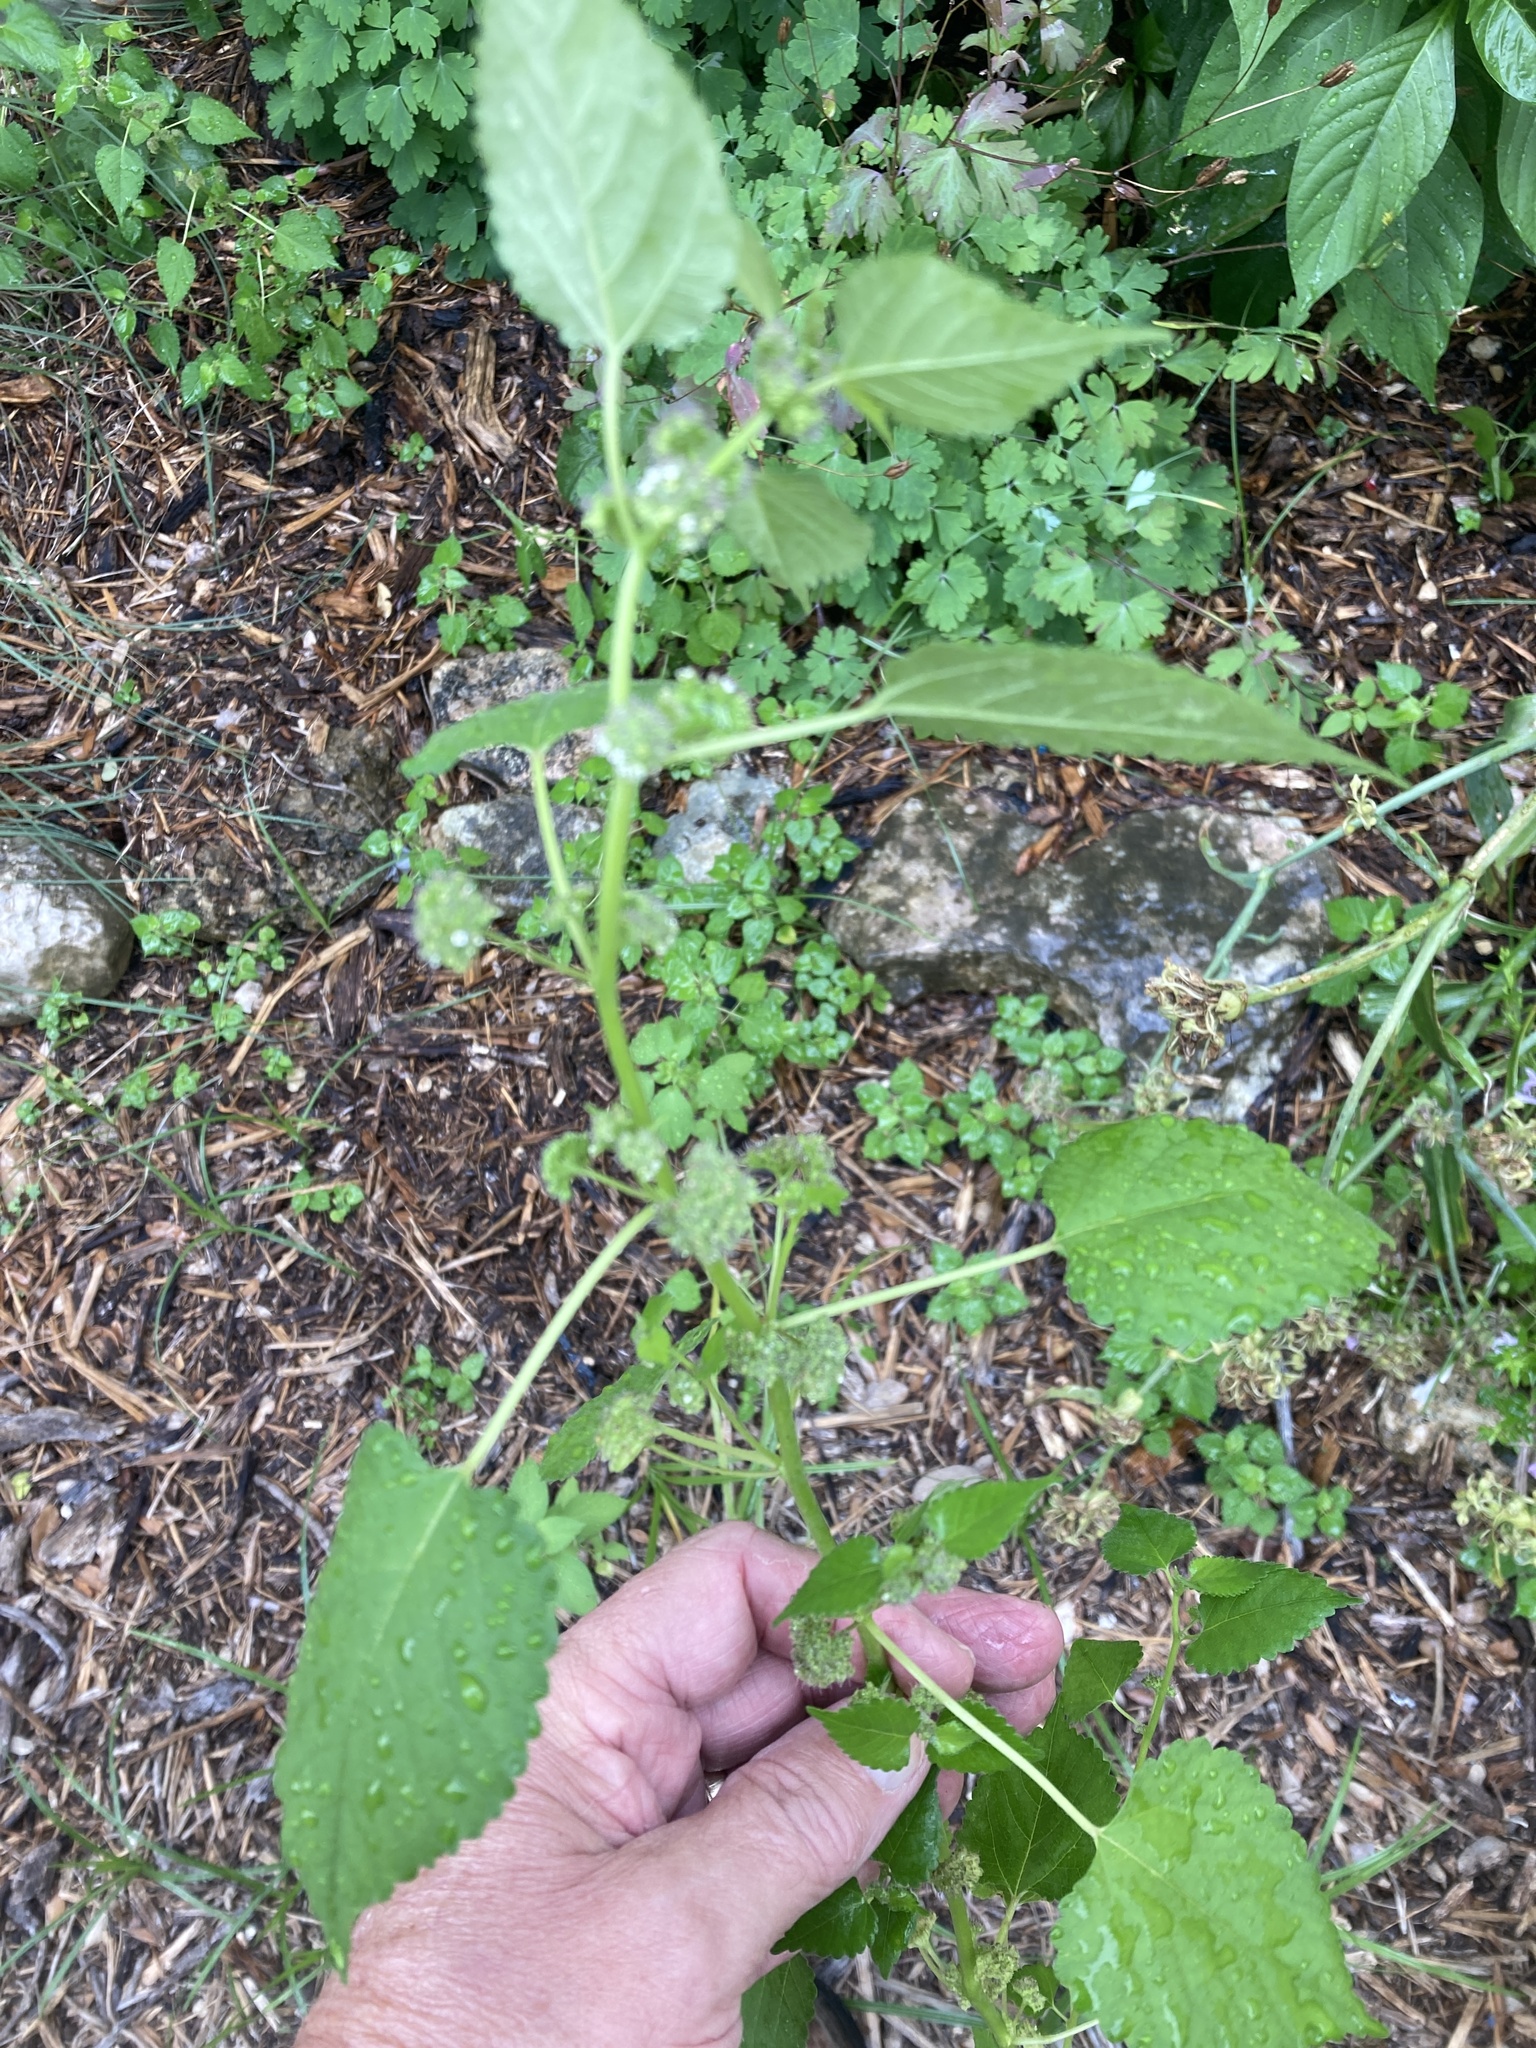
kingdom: Plantae
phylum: Tracheophyta
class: Magnoliopsida
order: Rosales
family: Moraceae
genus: Fatoua
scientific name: Fatoua villosa
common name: Hairy crabweed
